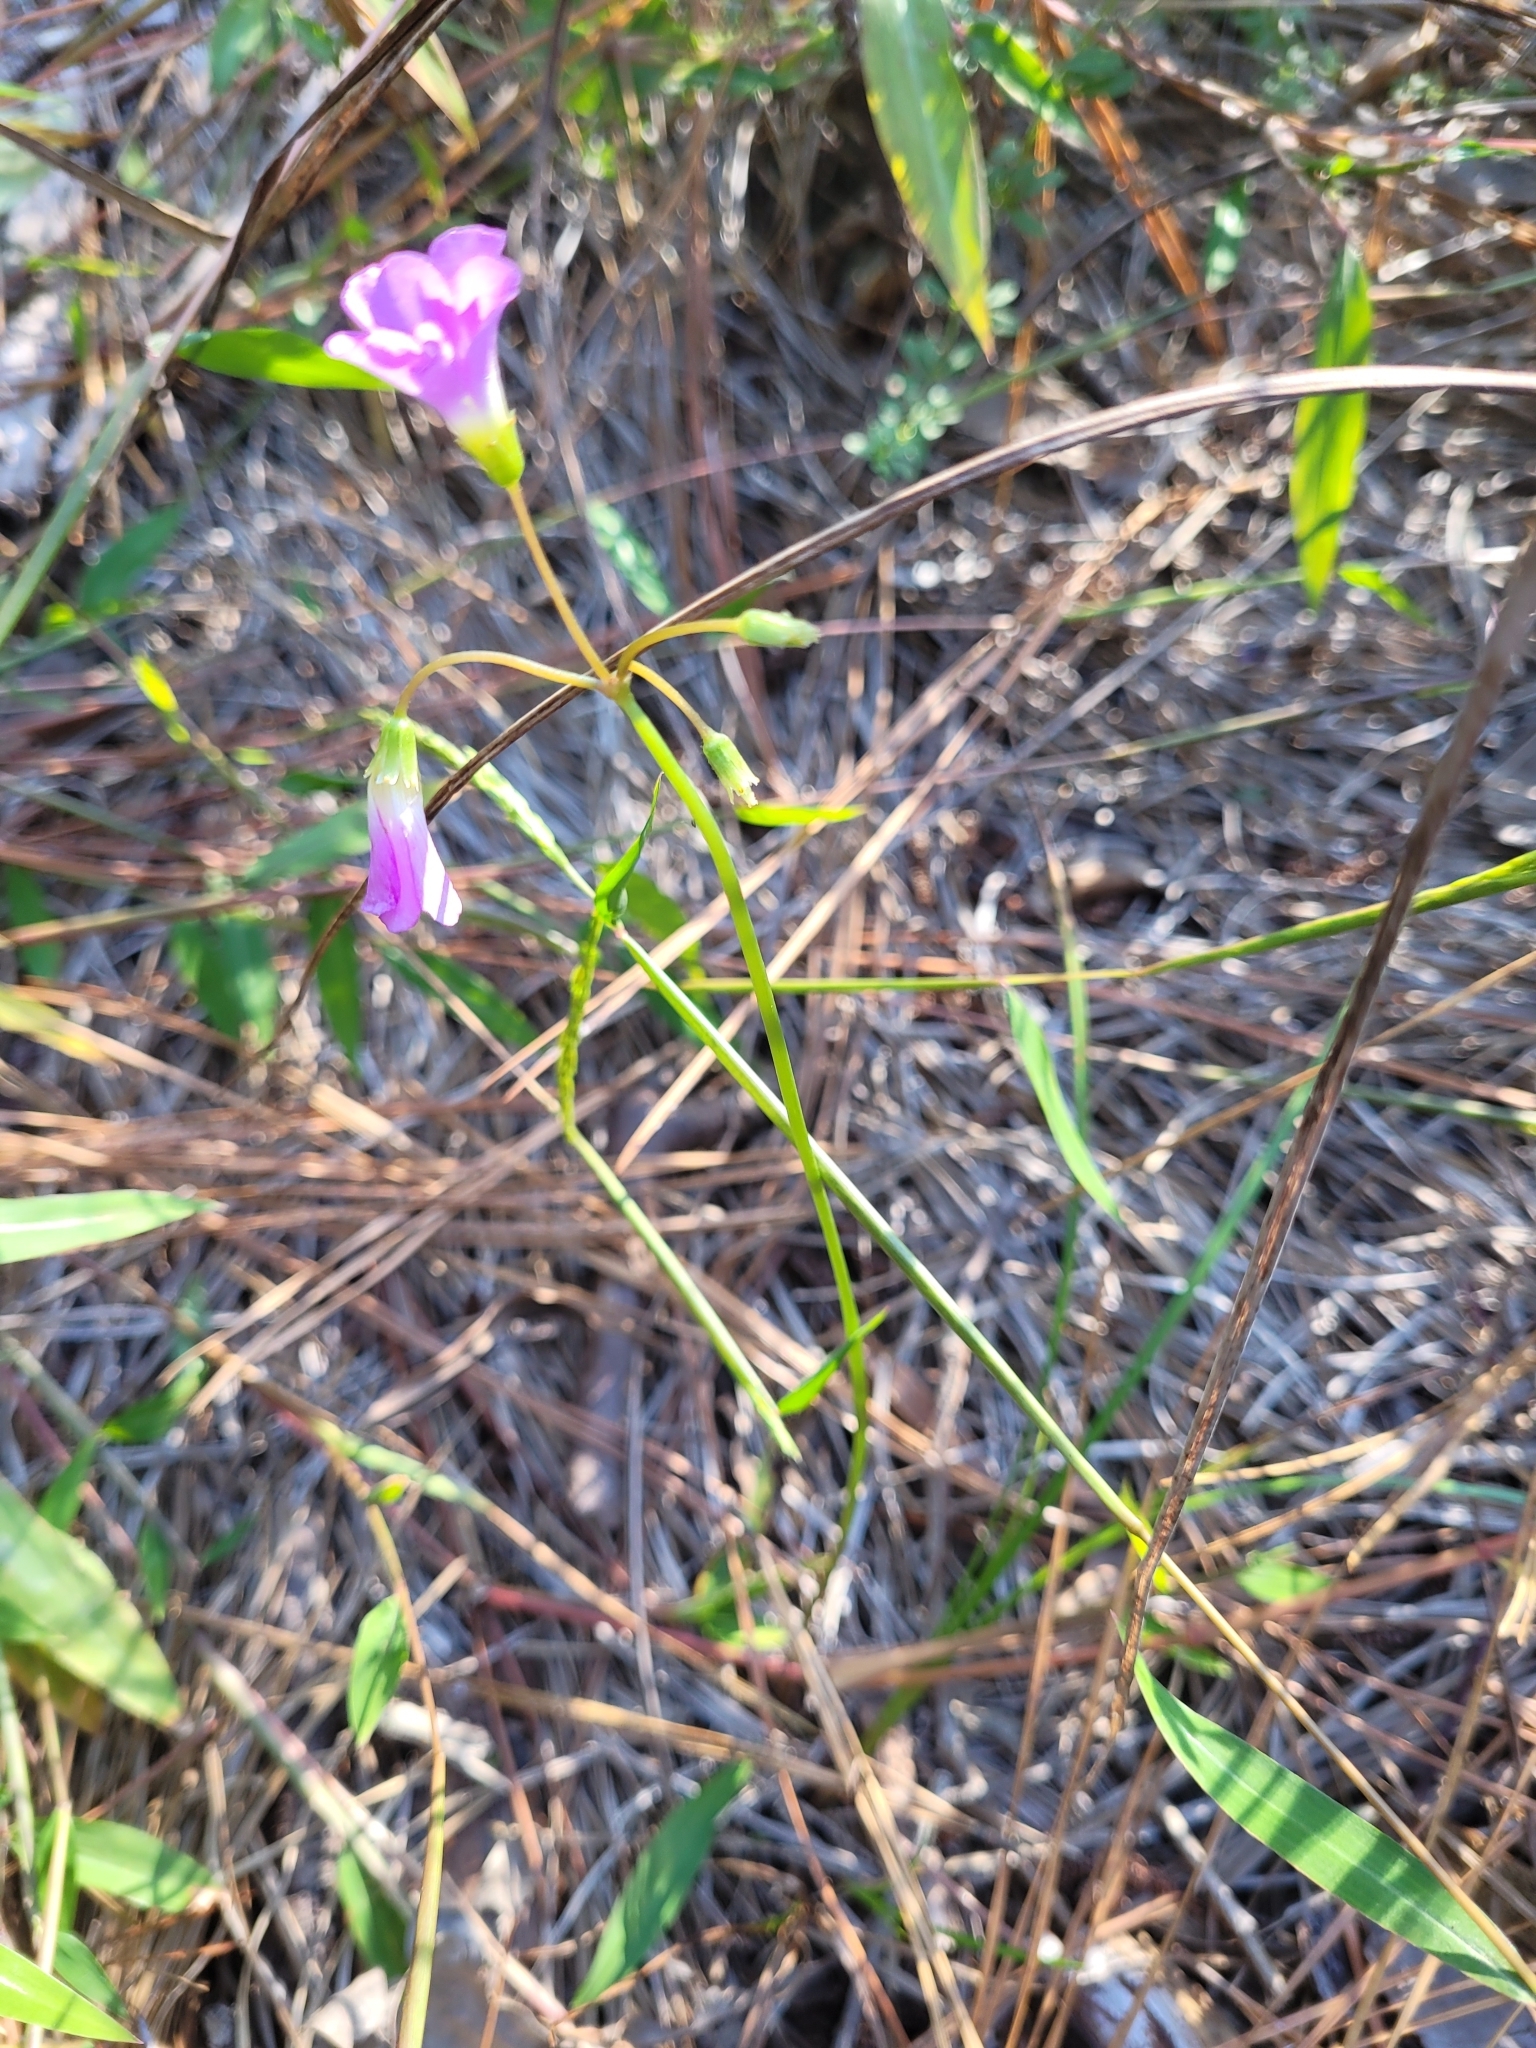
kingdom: Plantae
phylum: Tracheophyta
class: Magnoliopsida
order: Oxalidales
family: Oxalidaceae
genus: Oxalis
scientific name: Oxalis violacea
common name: Violet wood-sorrel
